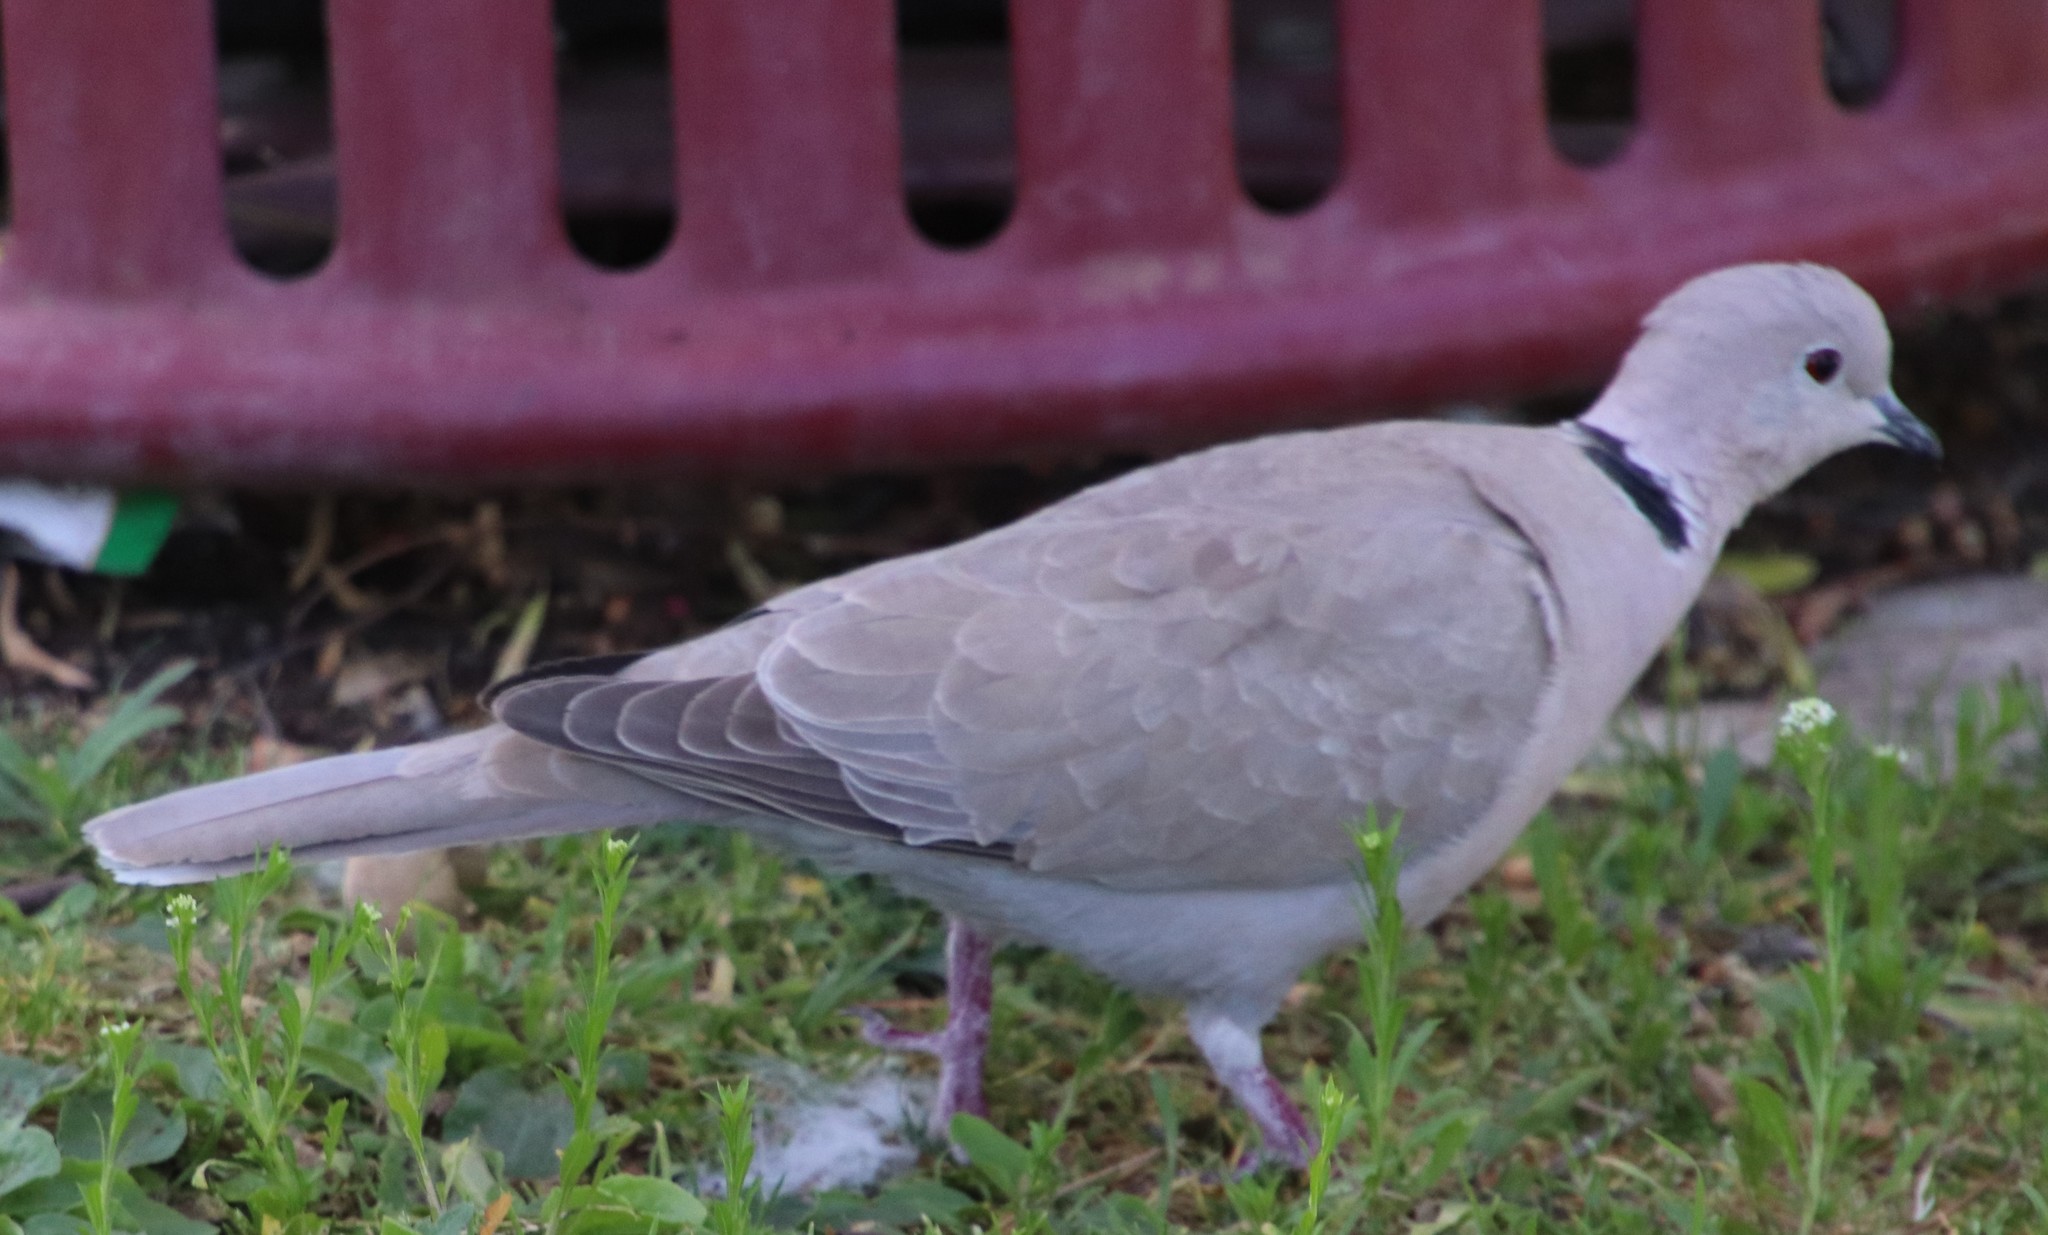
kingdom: Animalia
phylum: Chordata
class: Aves
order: Columbiformes
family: Columbidae
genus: Streptopelia
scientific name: Streptopelia decaocto
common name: Eurasian collared dove
